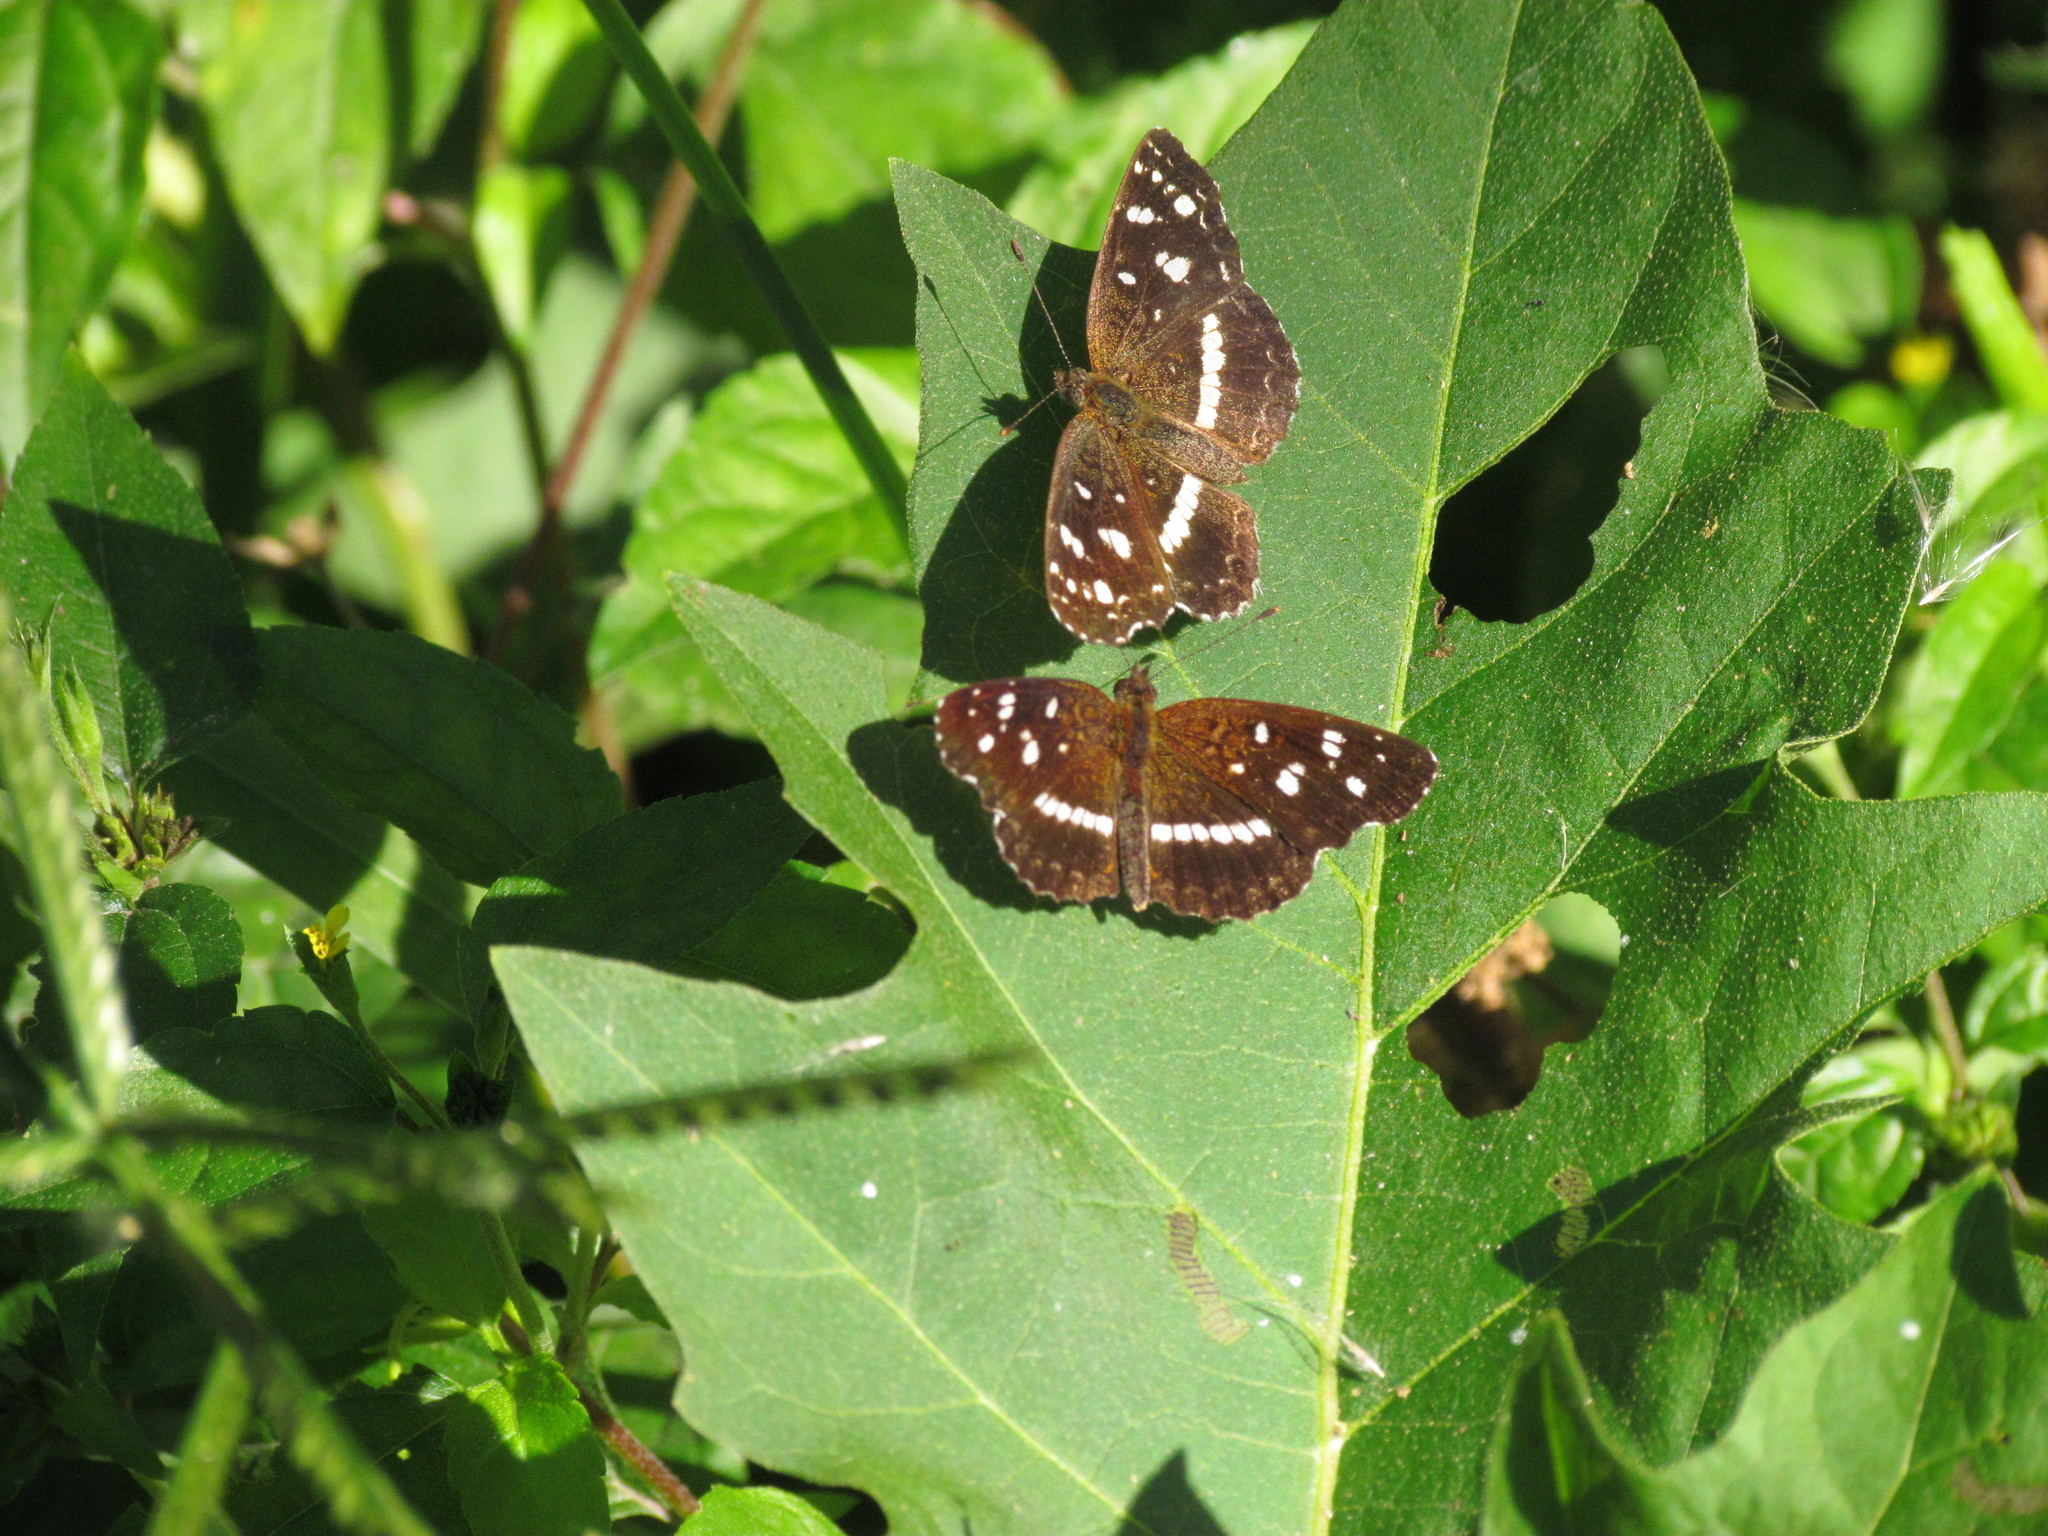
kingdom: Animalia
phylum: Arthropoda
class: Insecta
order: Lepidoptera
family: Nymphalidae
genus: Ortilia
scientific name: Ortilia ithra
